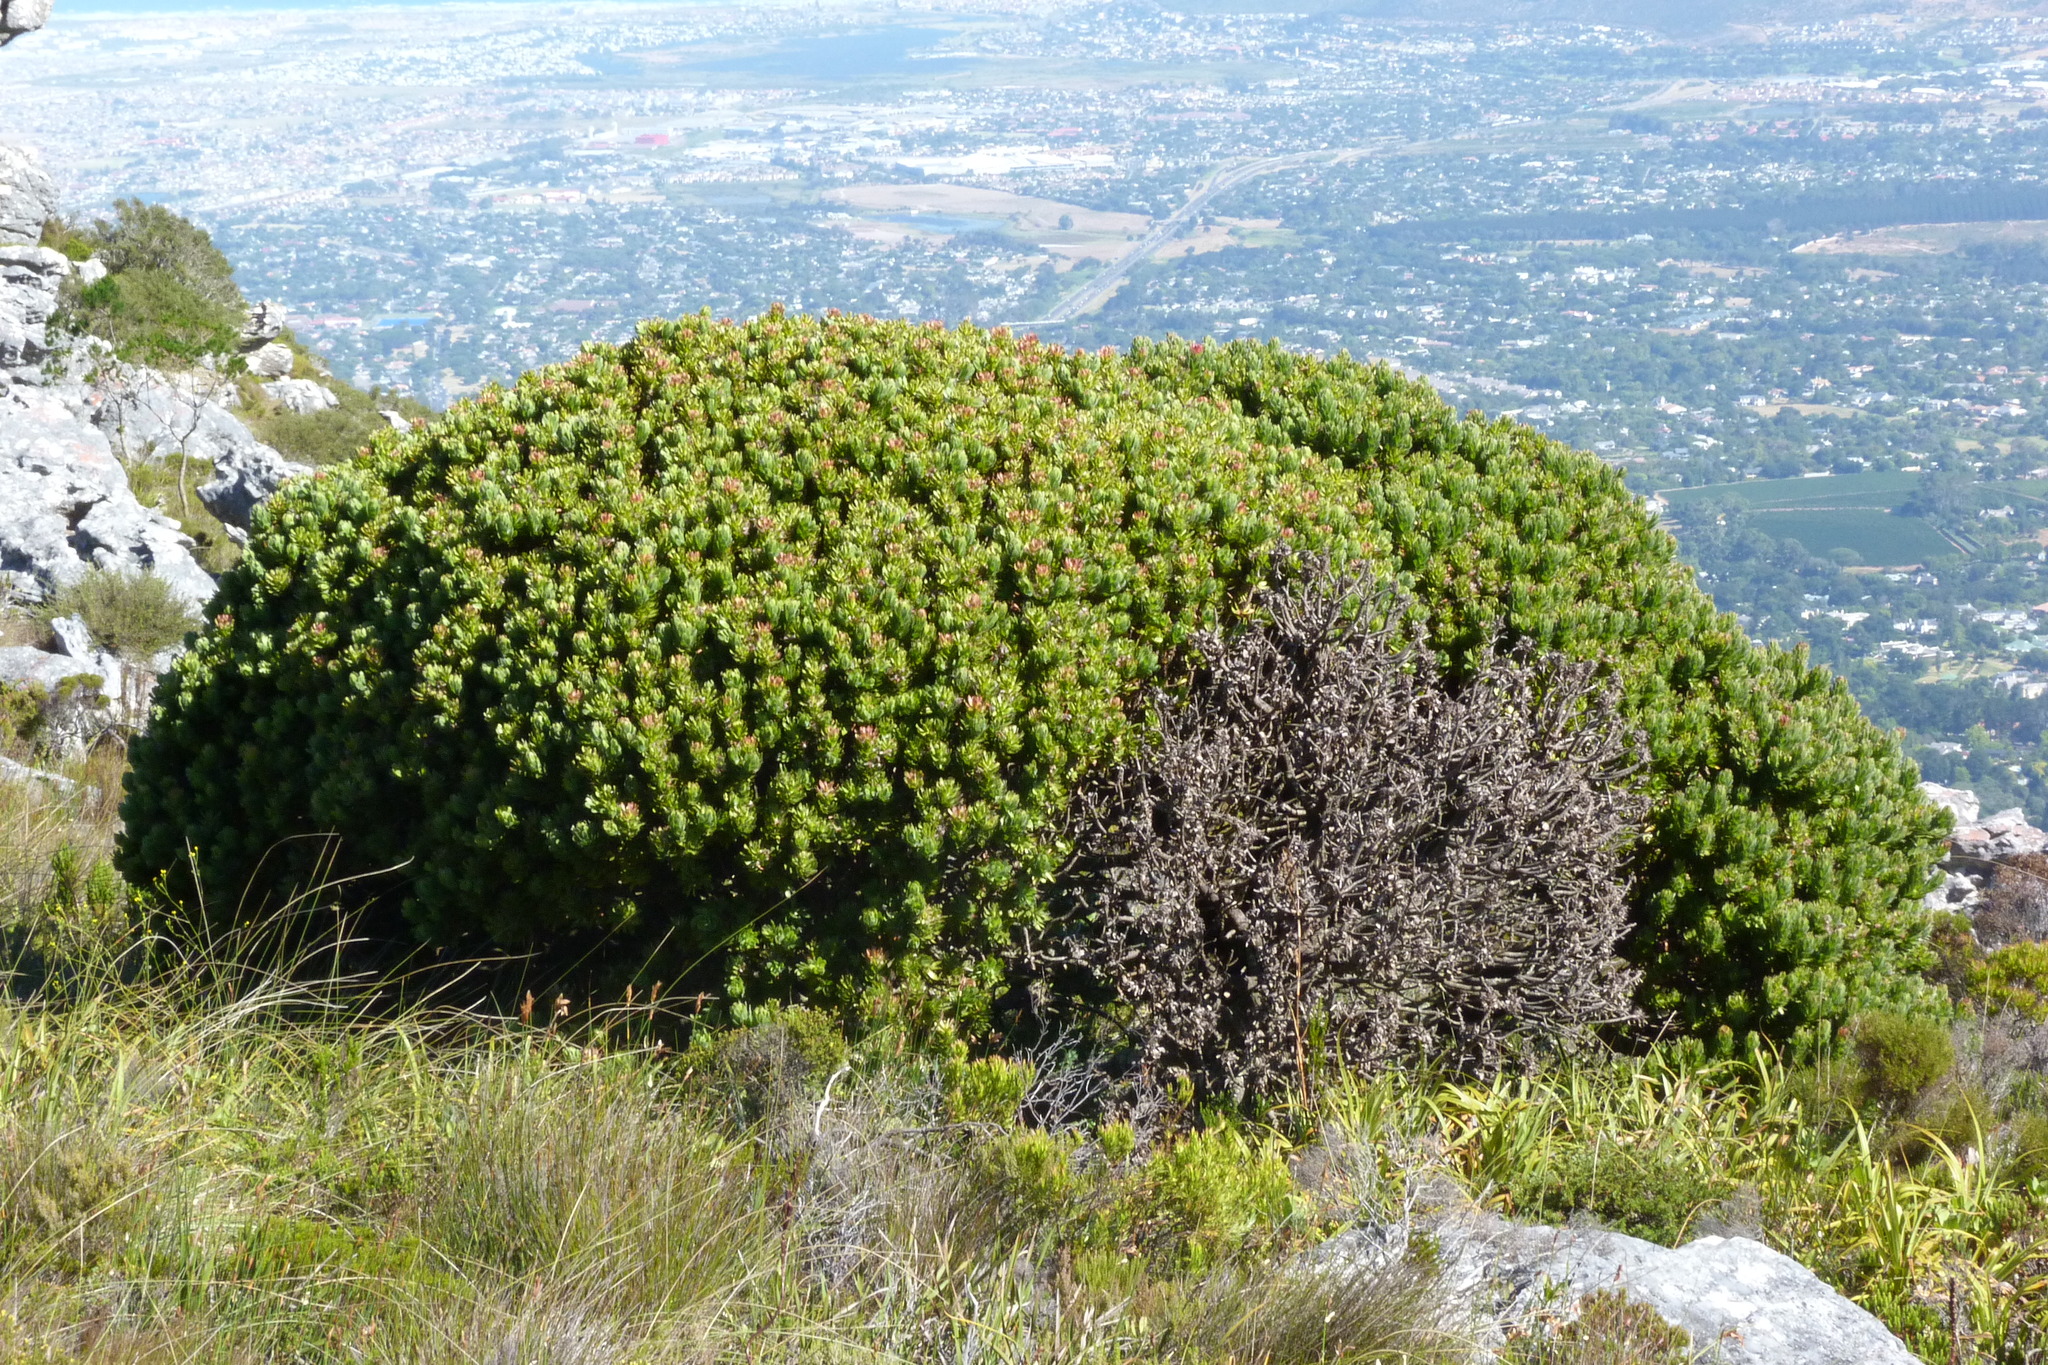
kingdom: Plantae
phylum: Tracheophyta
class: Magnoliopsida
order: Proteales
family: Proteaceae
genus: Mimetes
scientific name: Mimetes fimbriifolius
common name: Fringed bottlebrush
